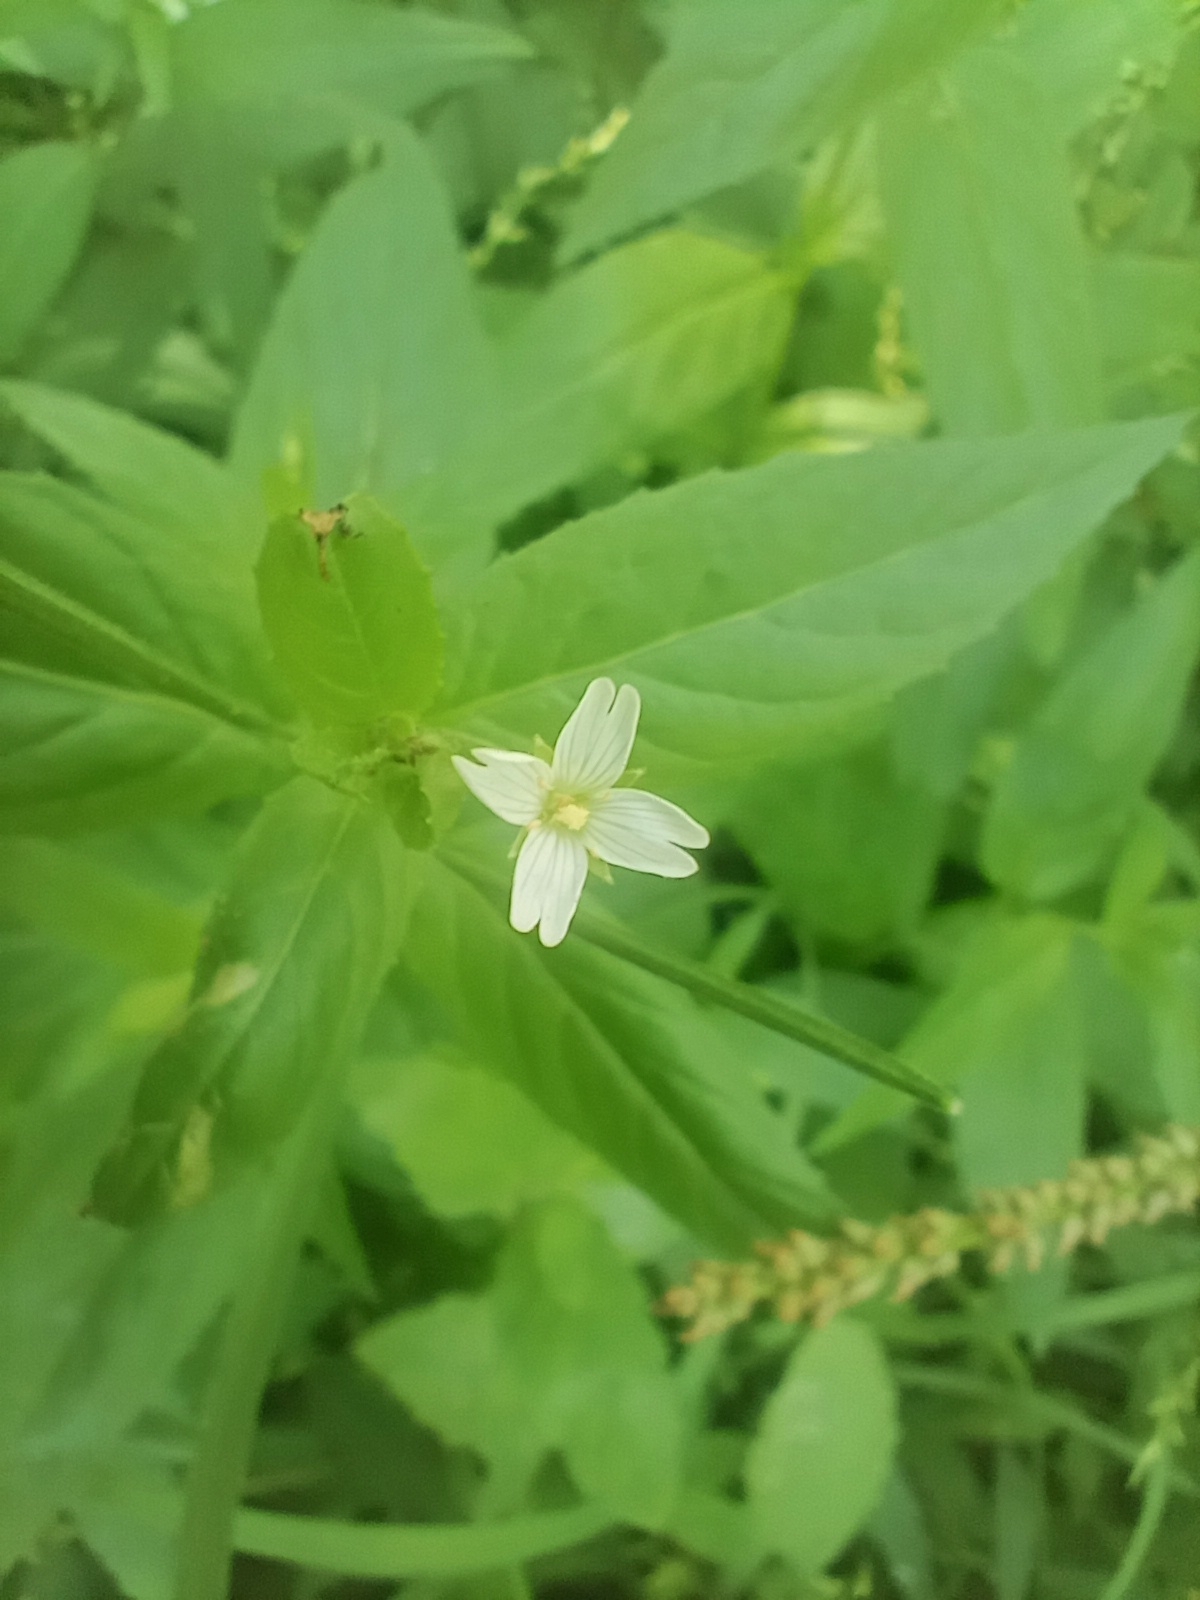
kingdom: Plantae
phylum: Tracheophyta
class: Magnoliopsida
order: Myrtales
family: Onagraceae
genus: Epilobium
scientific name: Epilobium pseudorubescens
